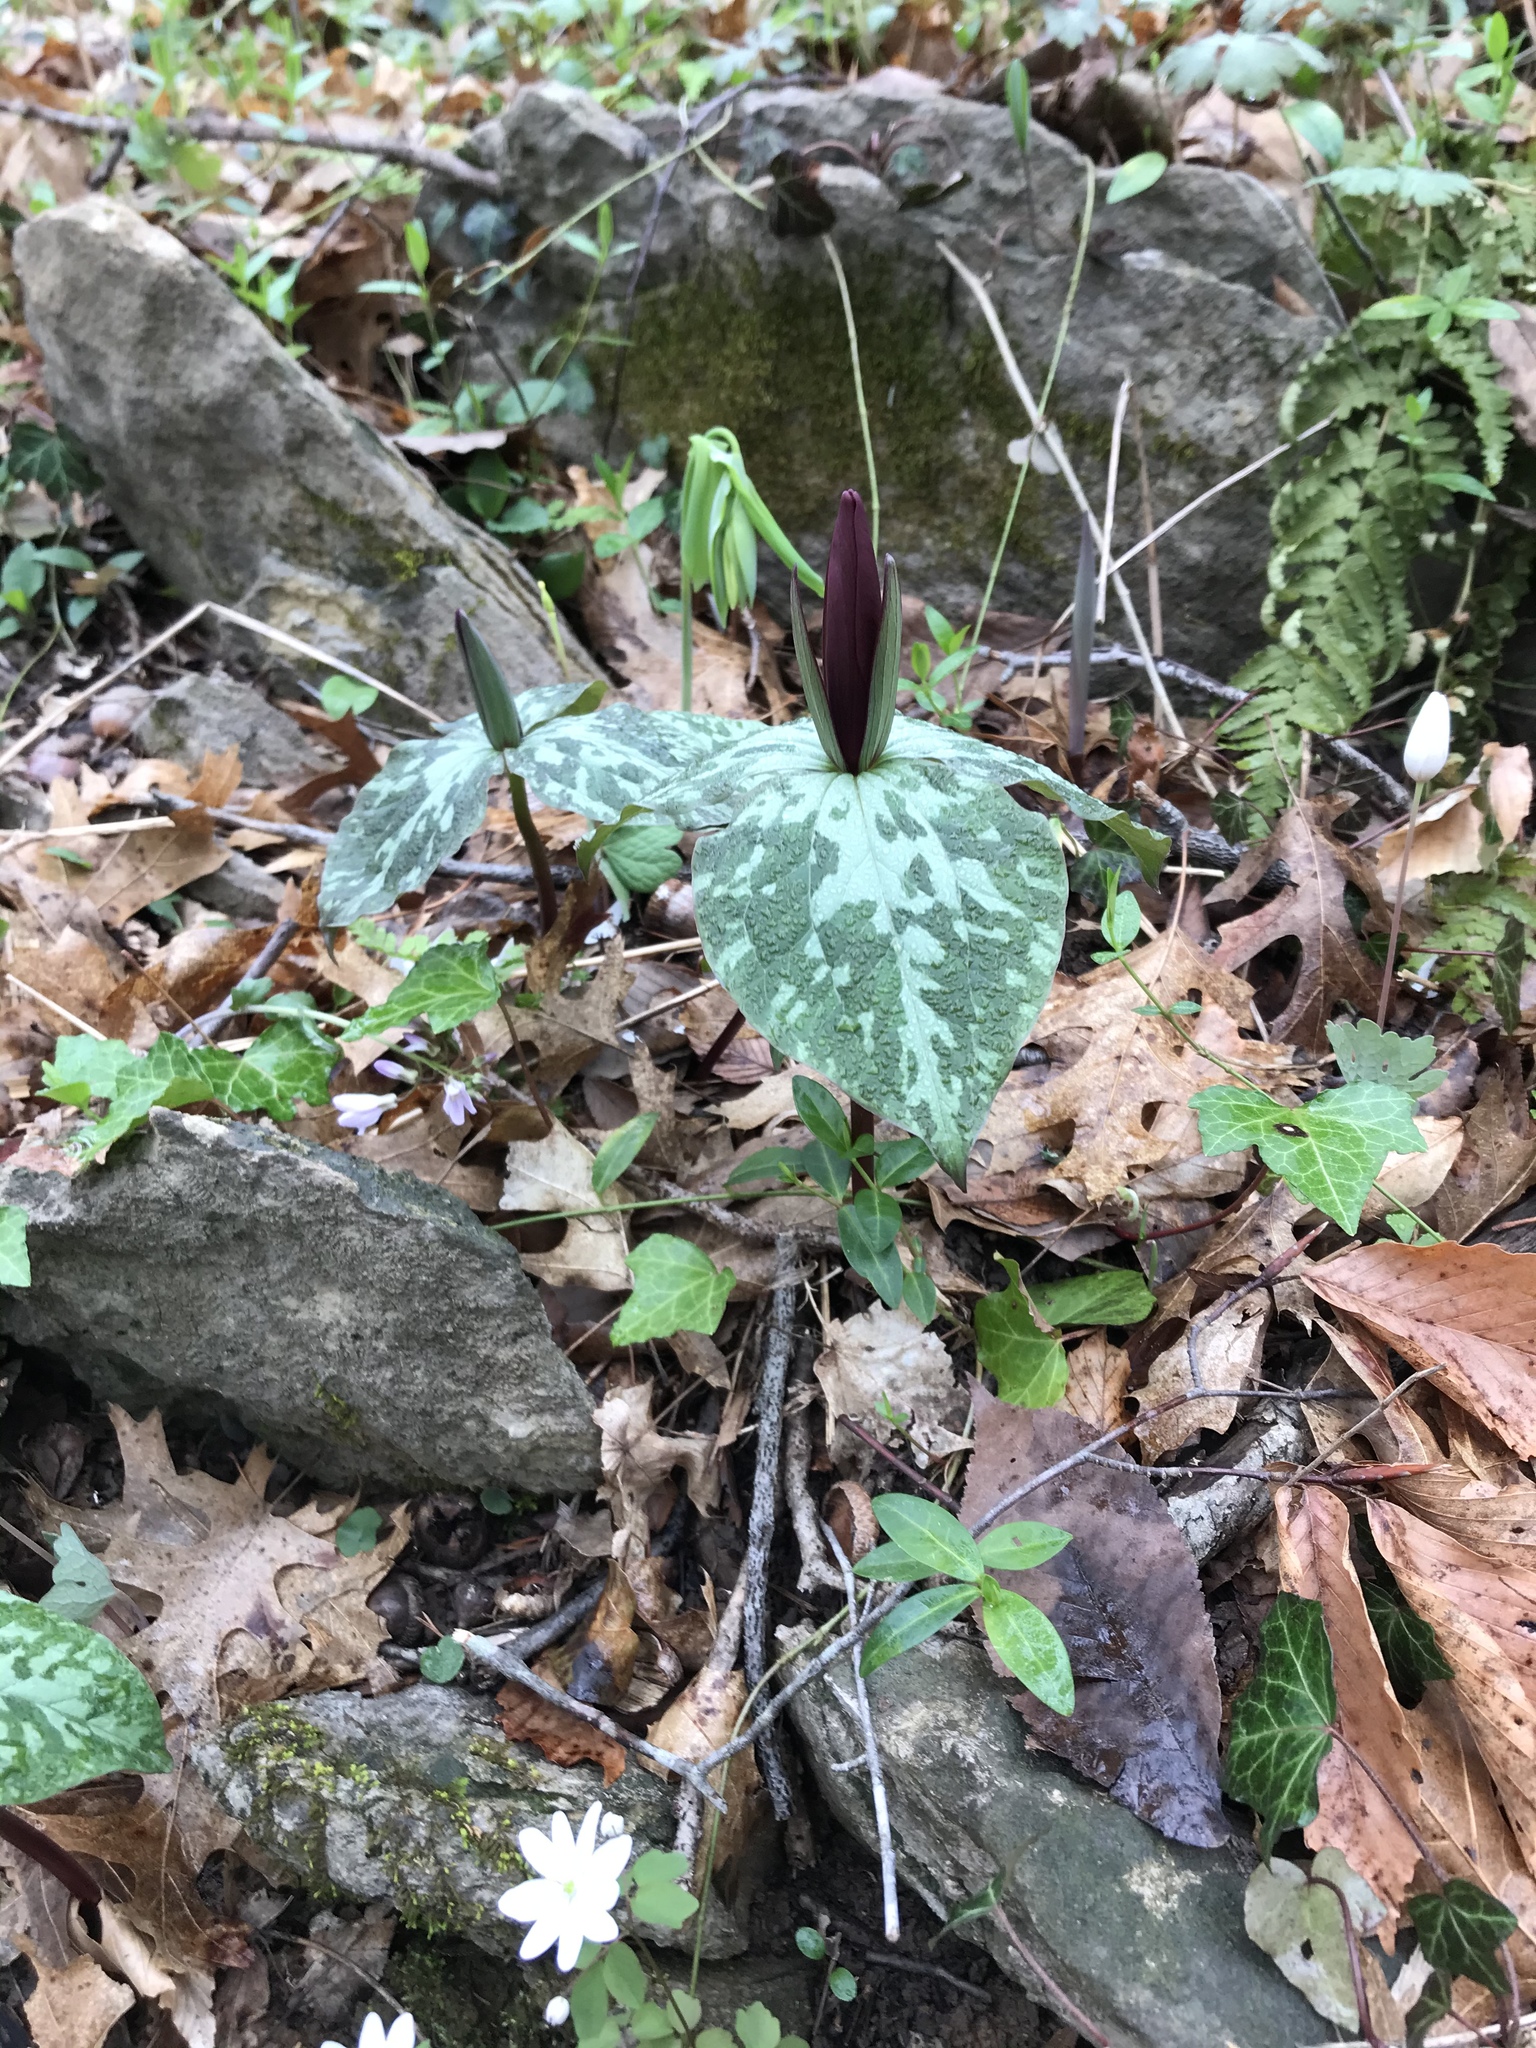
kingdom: Plantae
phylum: Tracheophyta
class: Liliopsida
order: Liliales
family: Melanthiaceae
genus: Trillium
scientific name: Trillium cuneatum
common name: Cuneate trillium
